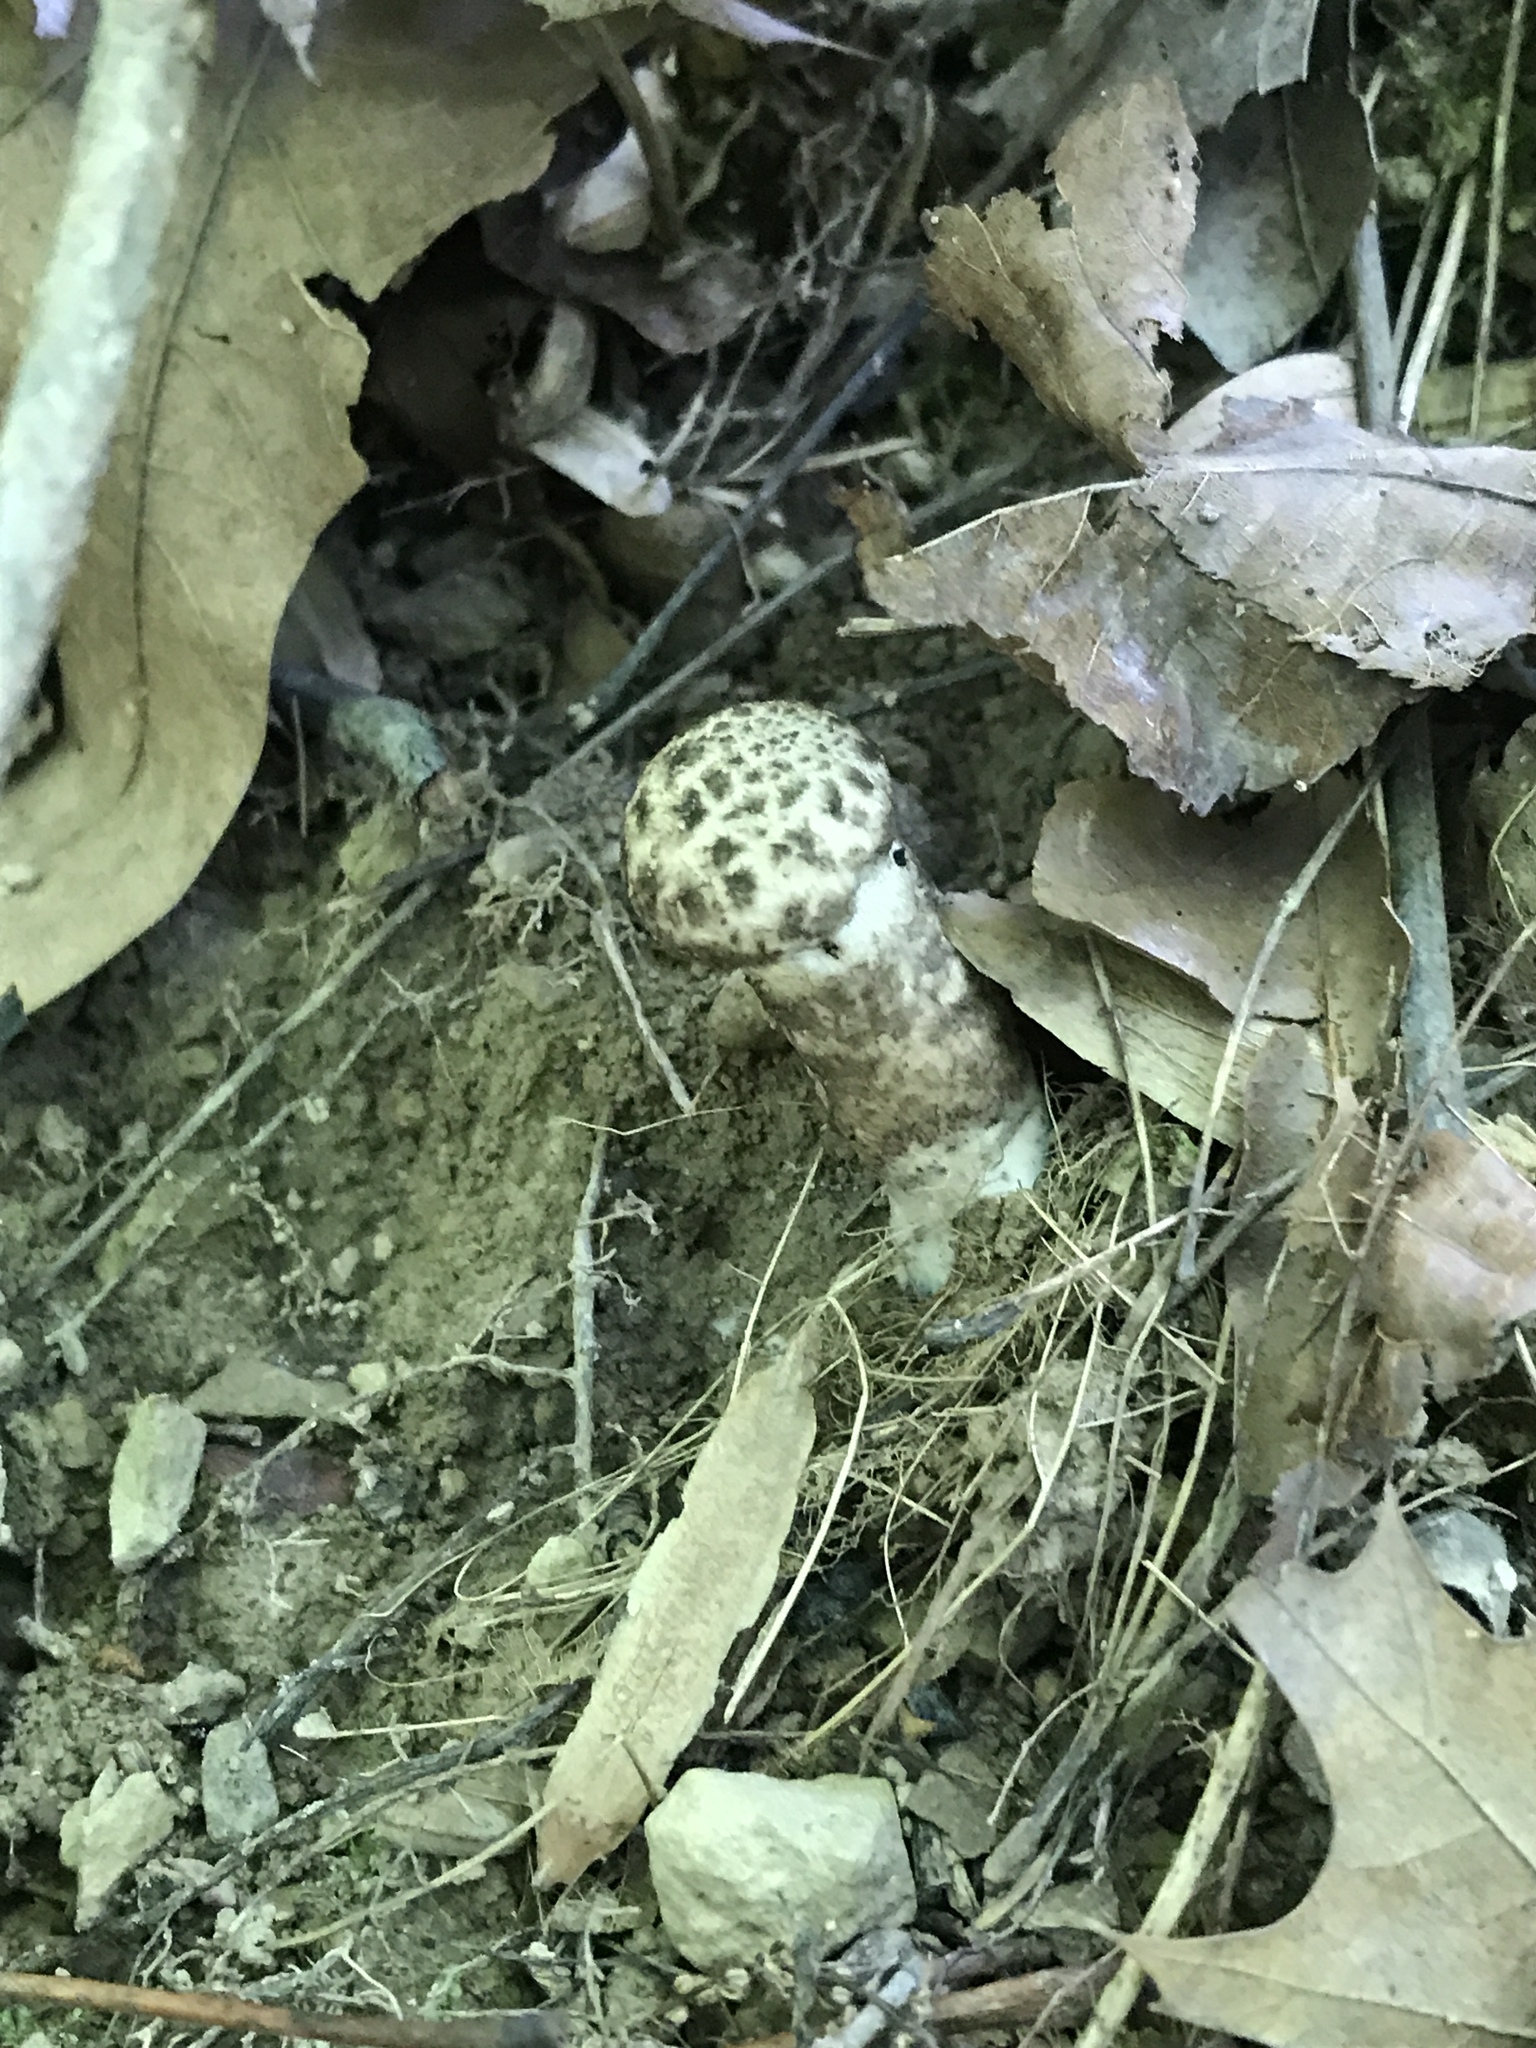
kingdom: Fungi
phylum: Basidiomycota
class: Agaricomycetes
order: Boletales
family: Boletaceae
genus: Strobilomyces
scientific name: Strobilomyces strobilaceus
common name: Old man of the woods
